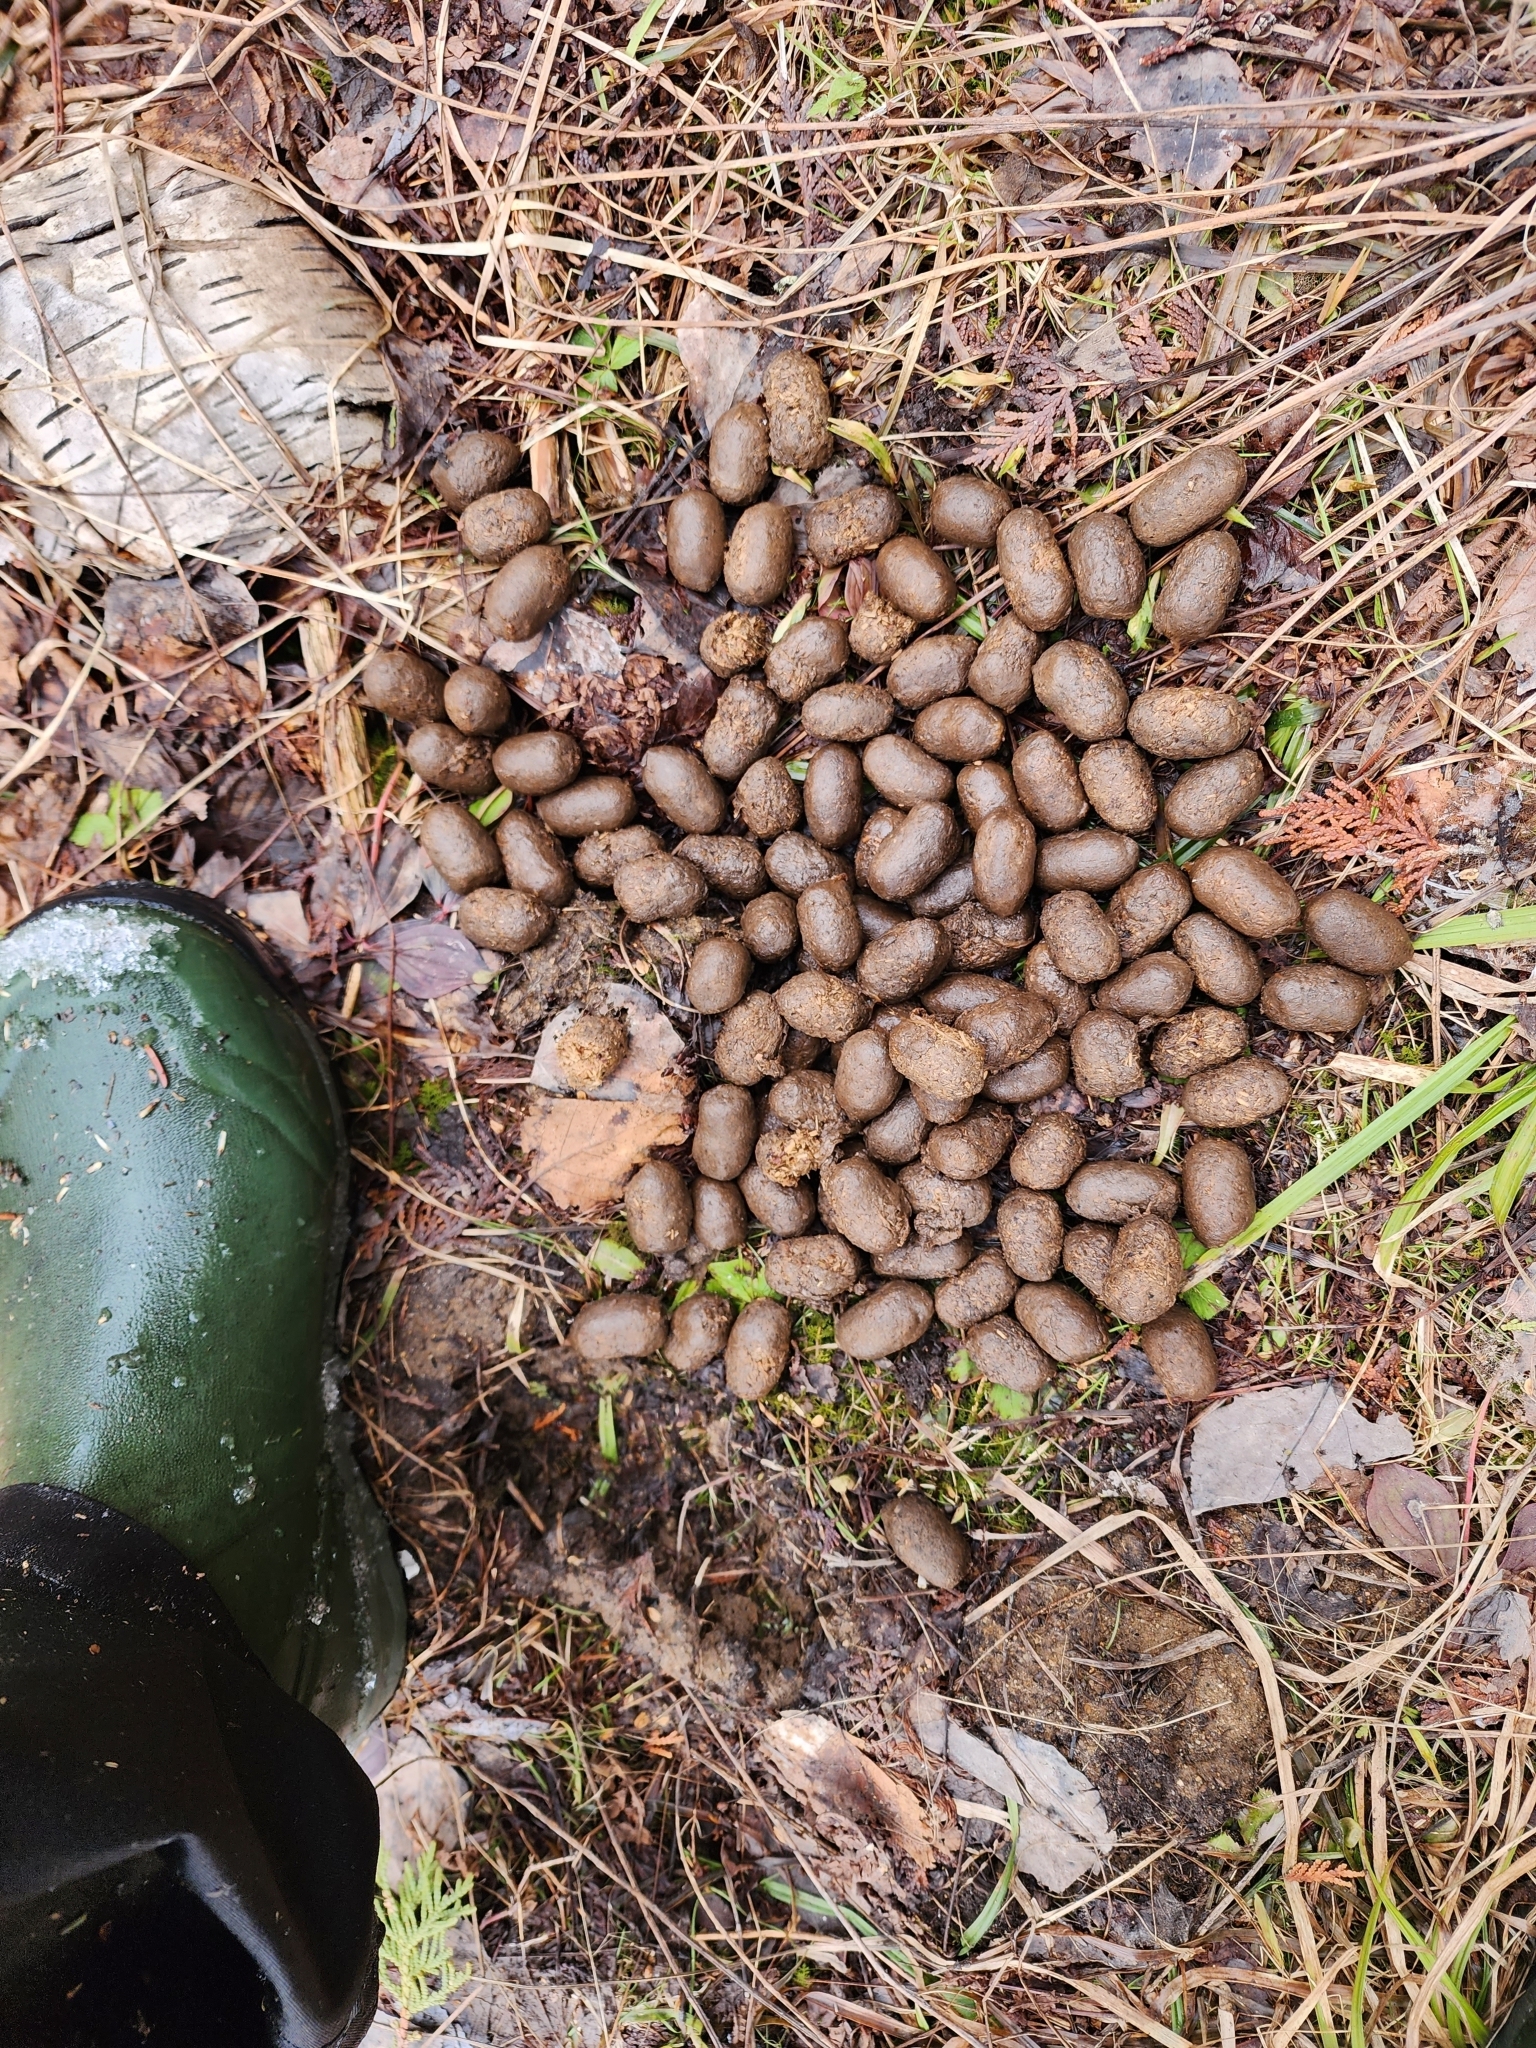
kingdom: Animalia
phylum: Chordata
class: Mammalia
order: Artiodactyla
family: Cervidae
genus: Alces
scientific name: Alces alces
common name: Moose
